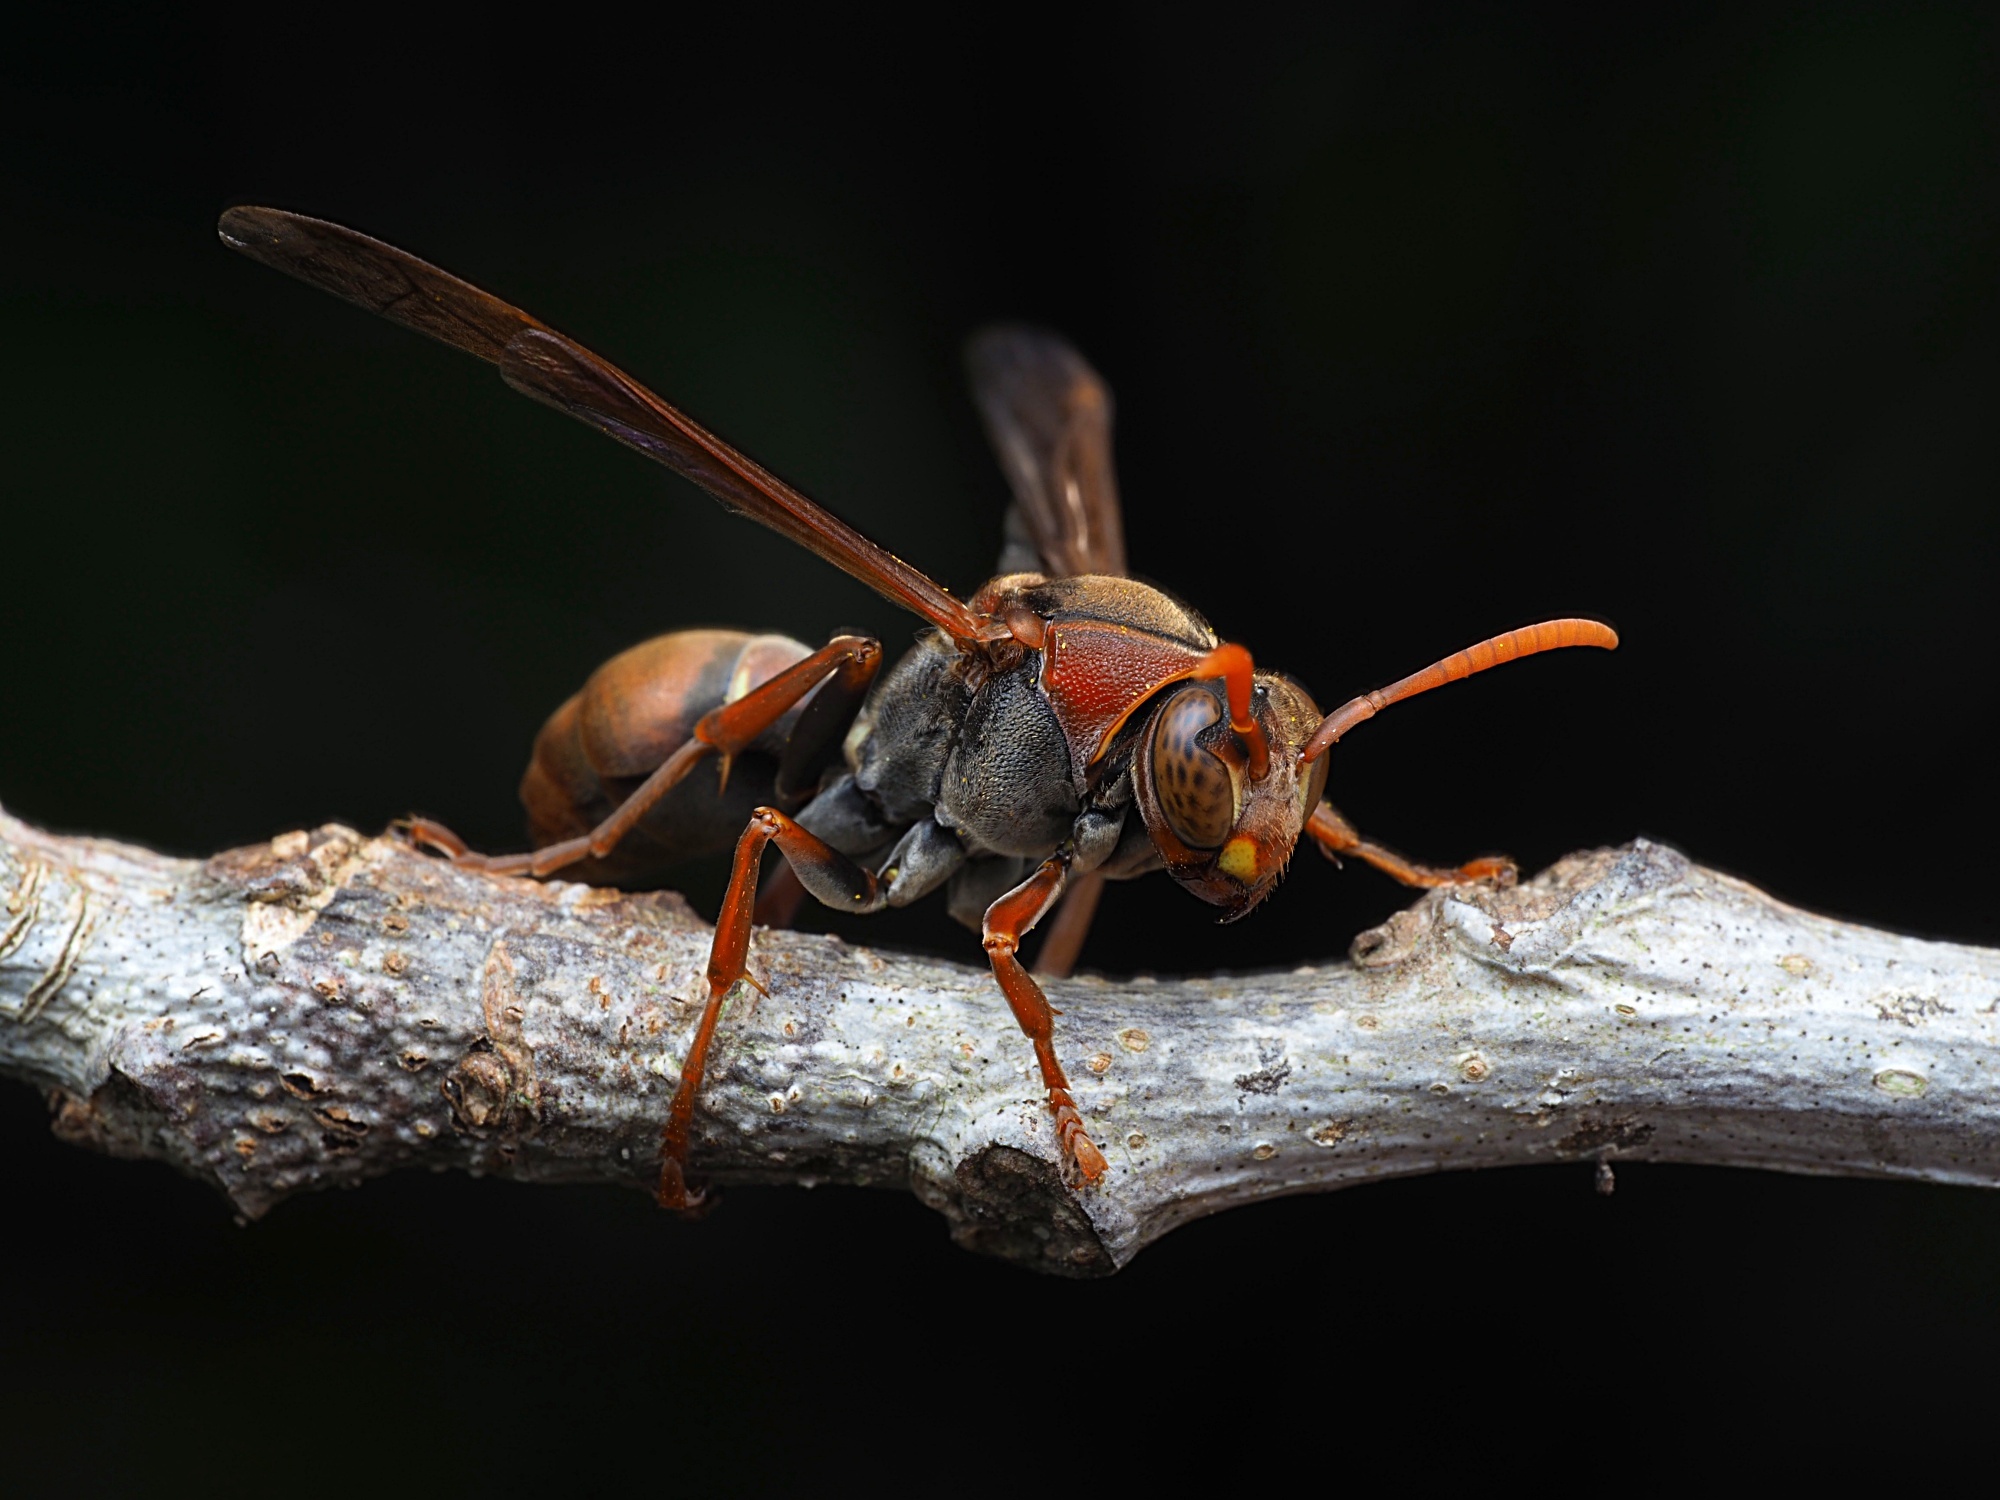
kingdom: Animalia
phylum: Arthropoda
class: Insecta
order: Hymenoptera
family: Eumenidae
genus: Polistes
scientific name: Polistes humilis
